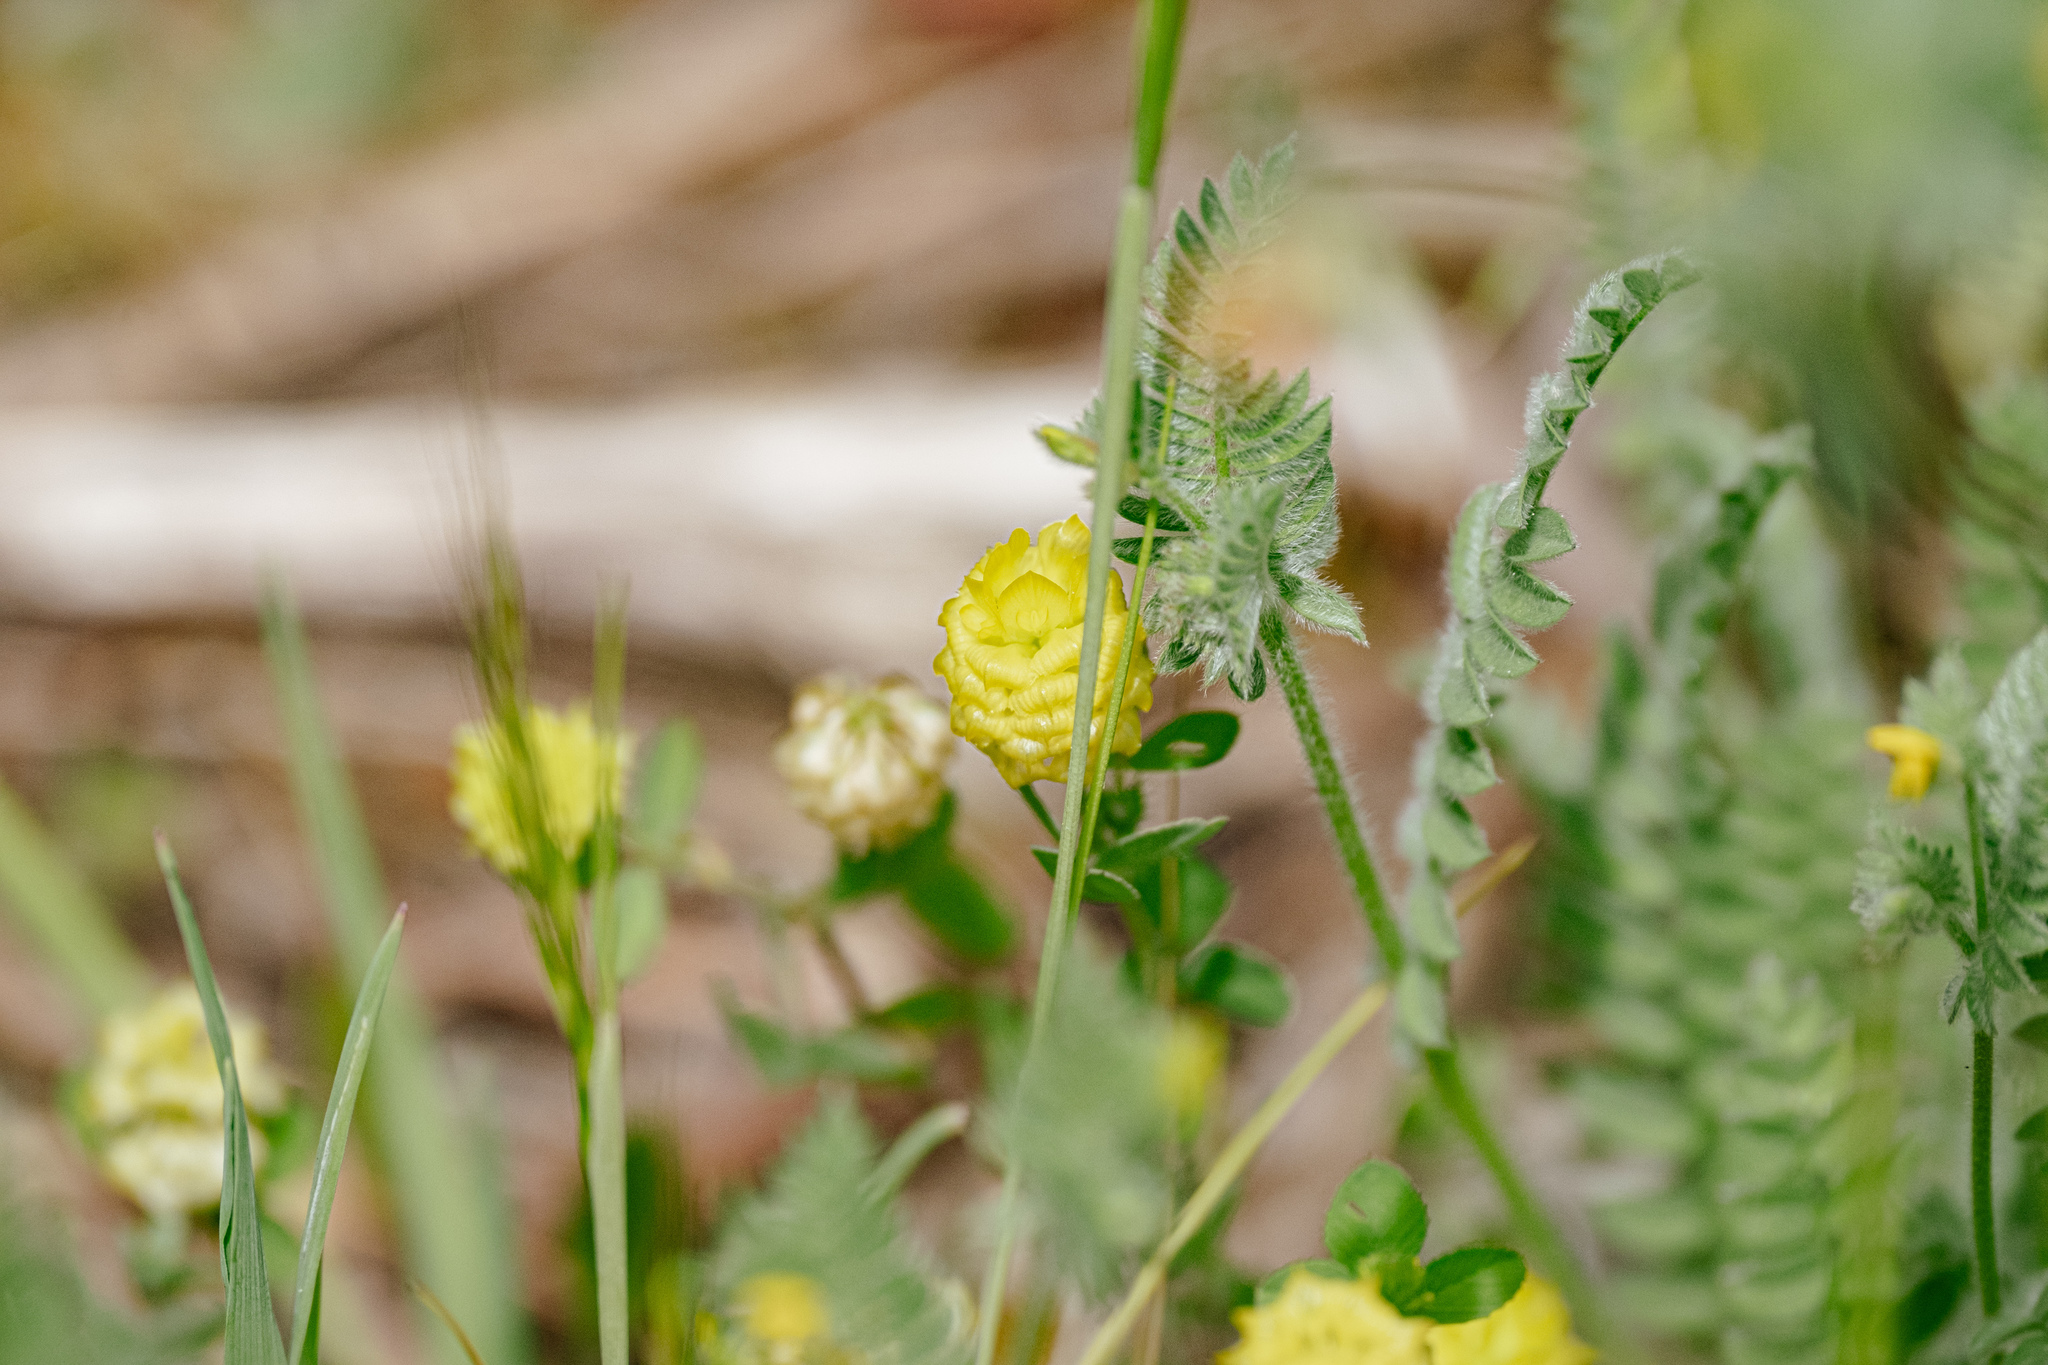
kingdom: Plantae
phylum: Tracheophyta
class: Magnoliopsida
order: Fabales
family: Fabaceae
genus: Trifolium
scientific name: Trifolium campestre
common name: Field clover
